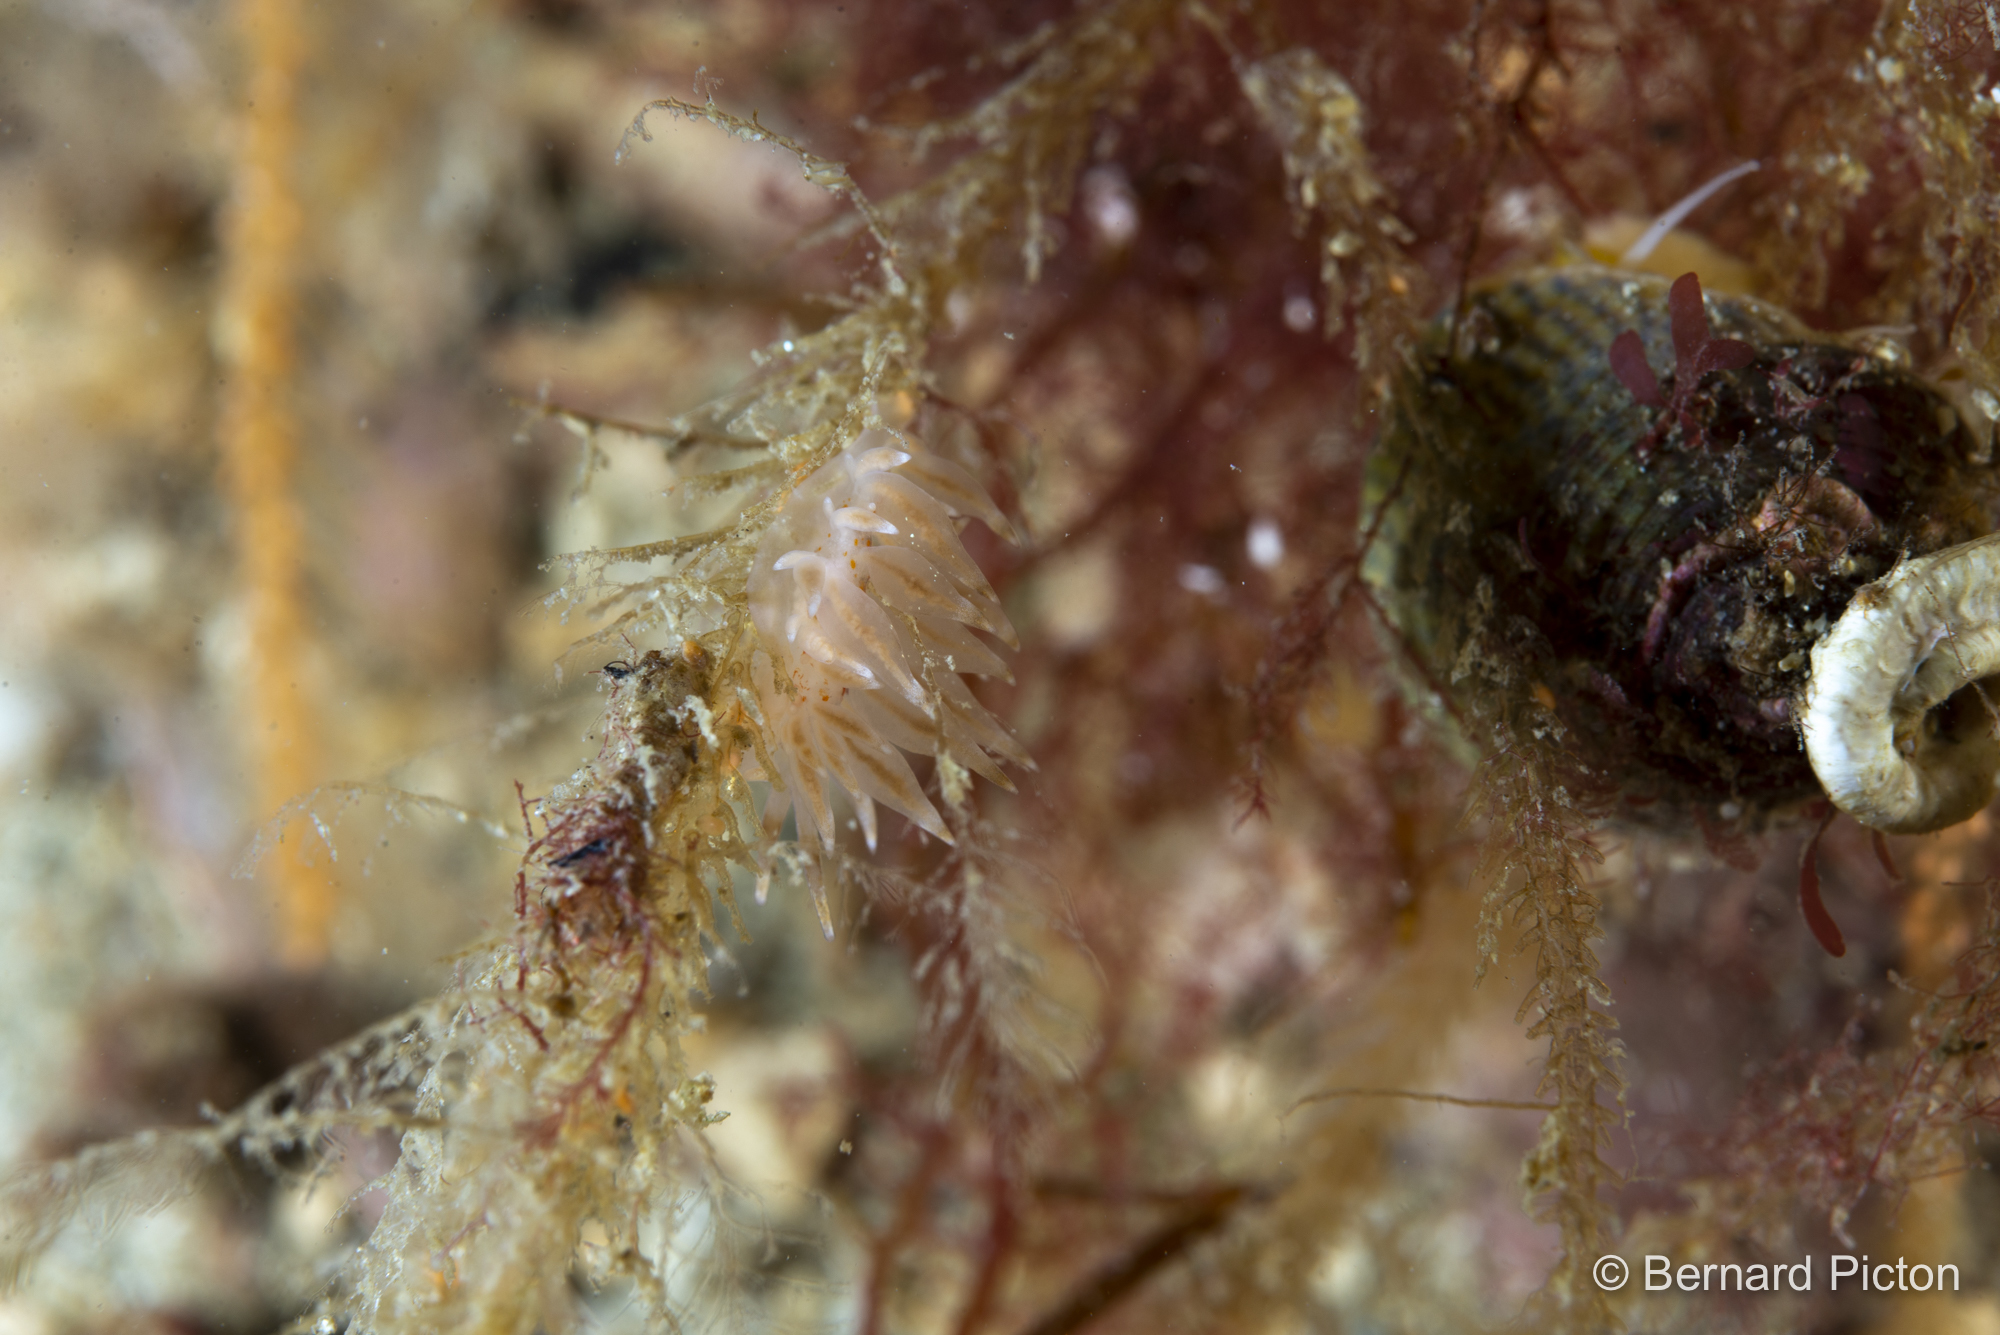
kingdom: Animalia
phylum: Mollusca
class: Gastropoda
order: Nudibranchia
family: Eubranchidae
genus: Amphorina
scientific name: Amphorina linensis
